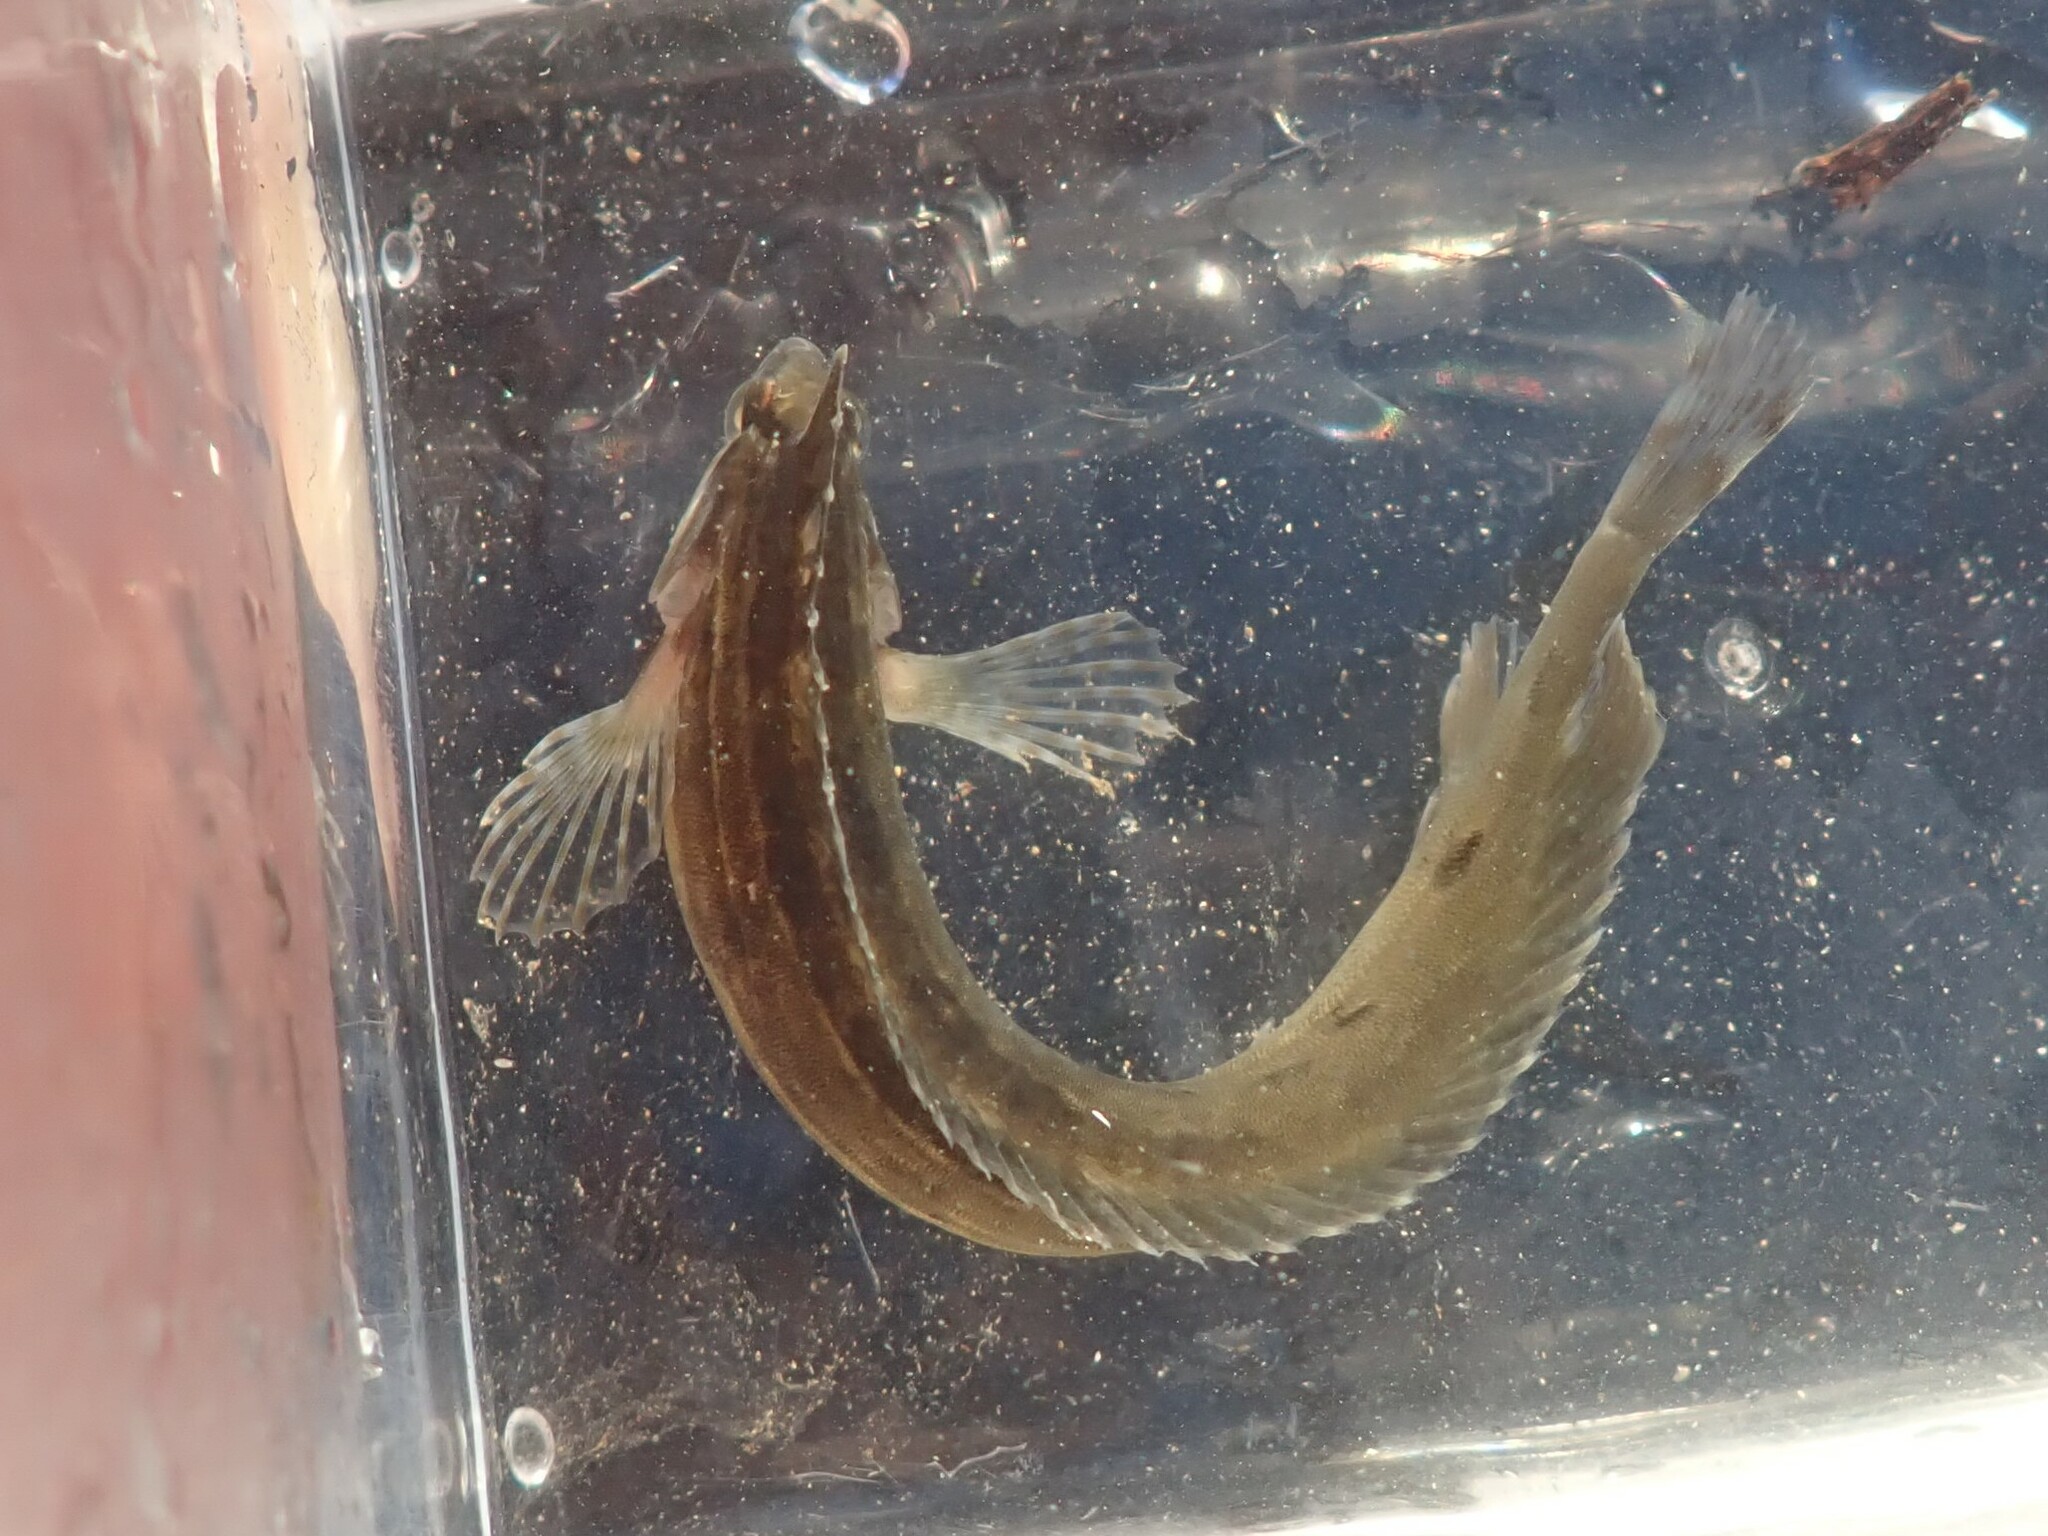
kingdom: Animalia
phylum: Chordata
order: Perciformes
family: Clinidae
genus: Gibbonsia
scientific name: Gibbonsia metzi
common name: Striped kelpfish
